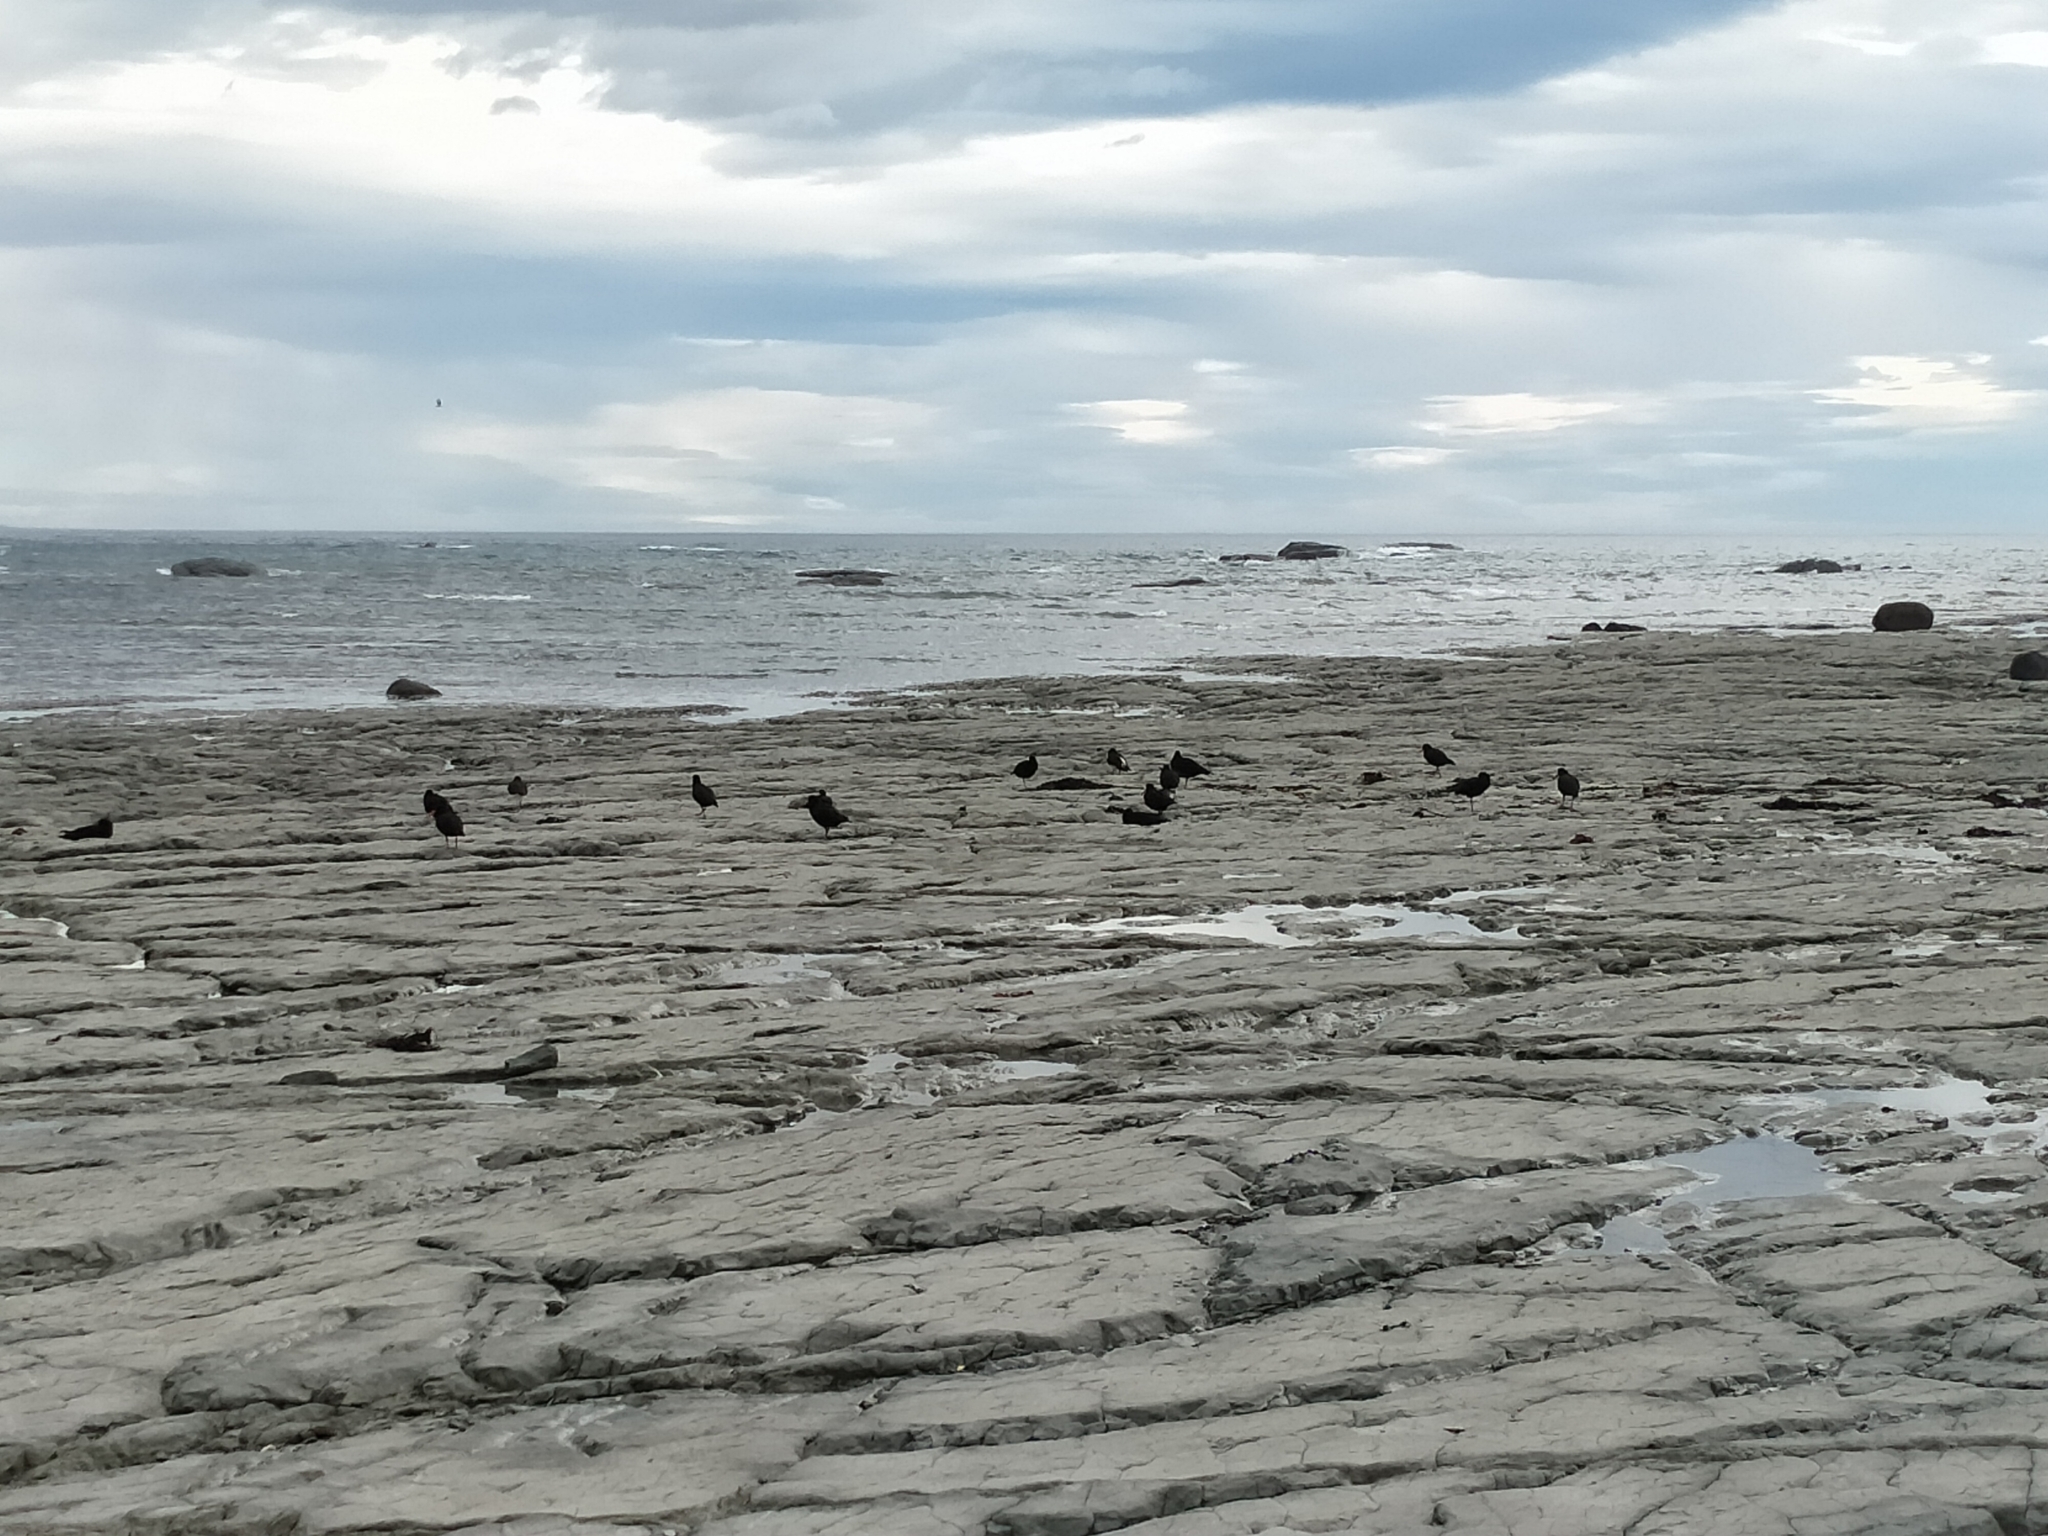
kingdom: Animalia
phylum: Chordata
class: Aves
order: Charadriiformes
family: Haematopodidae
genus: Haematopus
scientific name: Haematopus unicolor
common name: Variable oystercatcher
